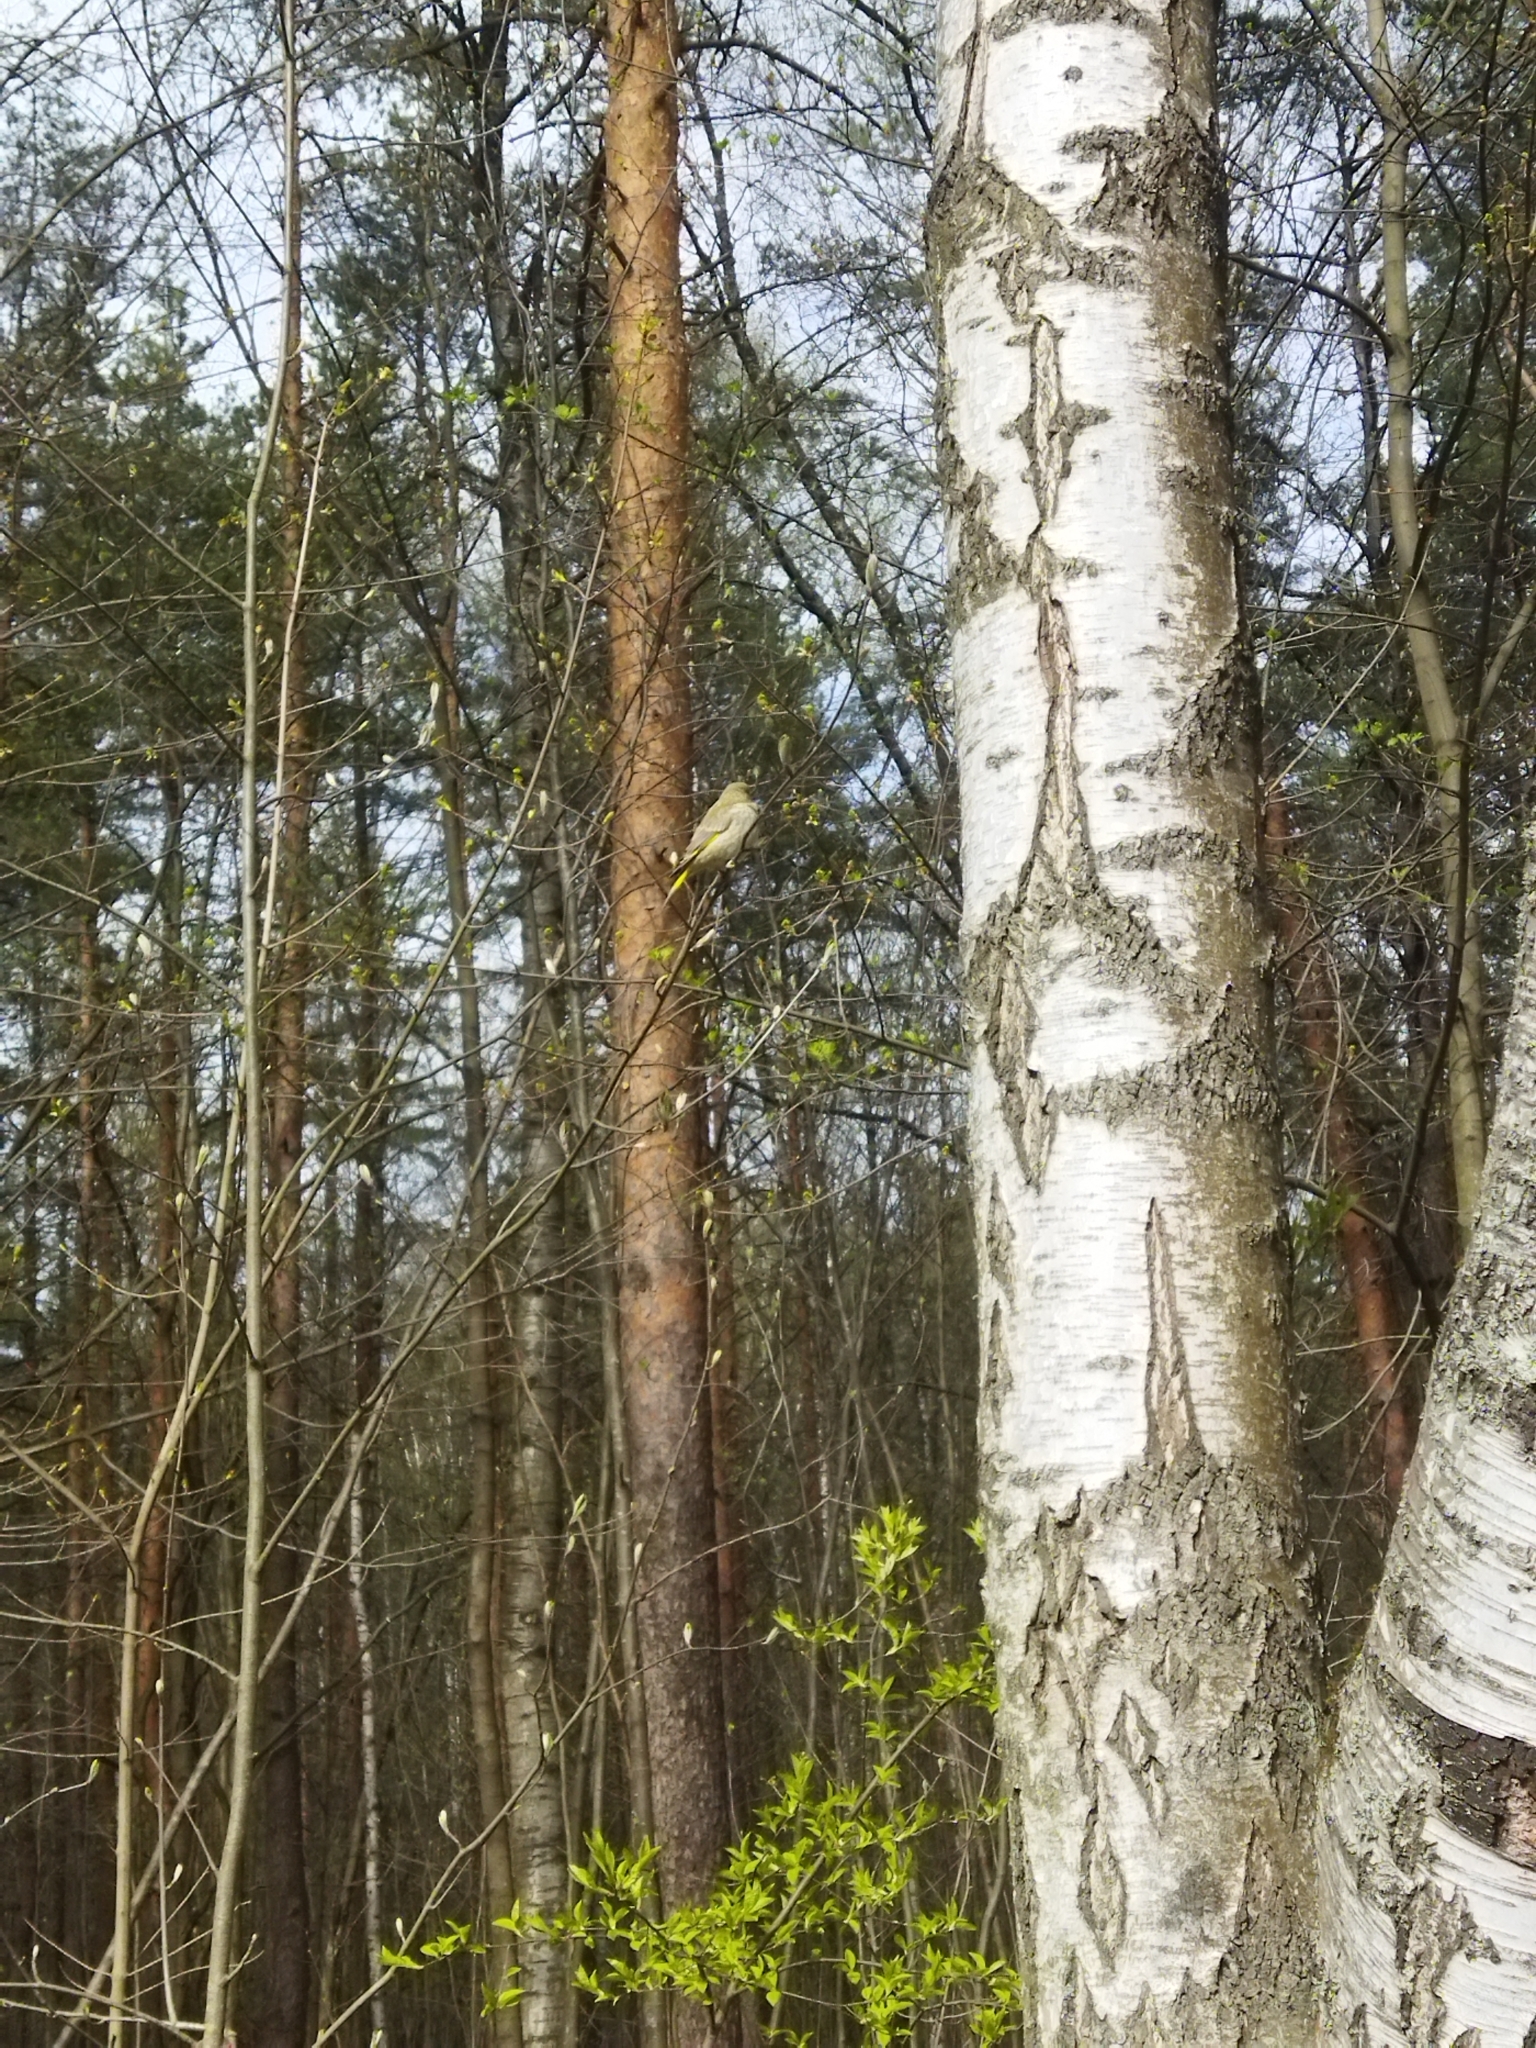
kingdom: Plantae
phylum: Tracheophyta
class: Liliopsida
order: Poales
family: Poaceae
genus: Chloris
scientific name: Chloris chloris
